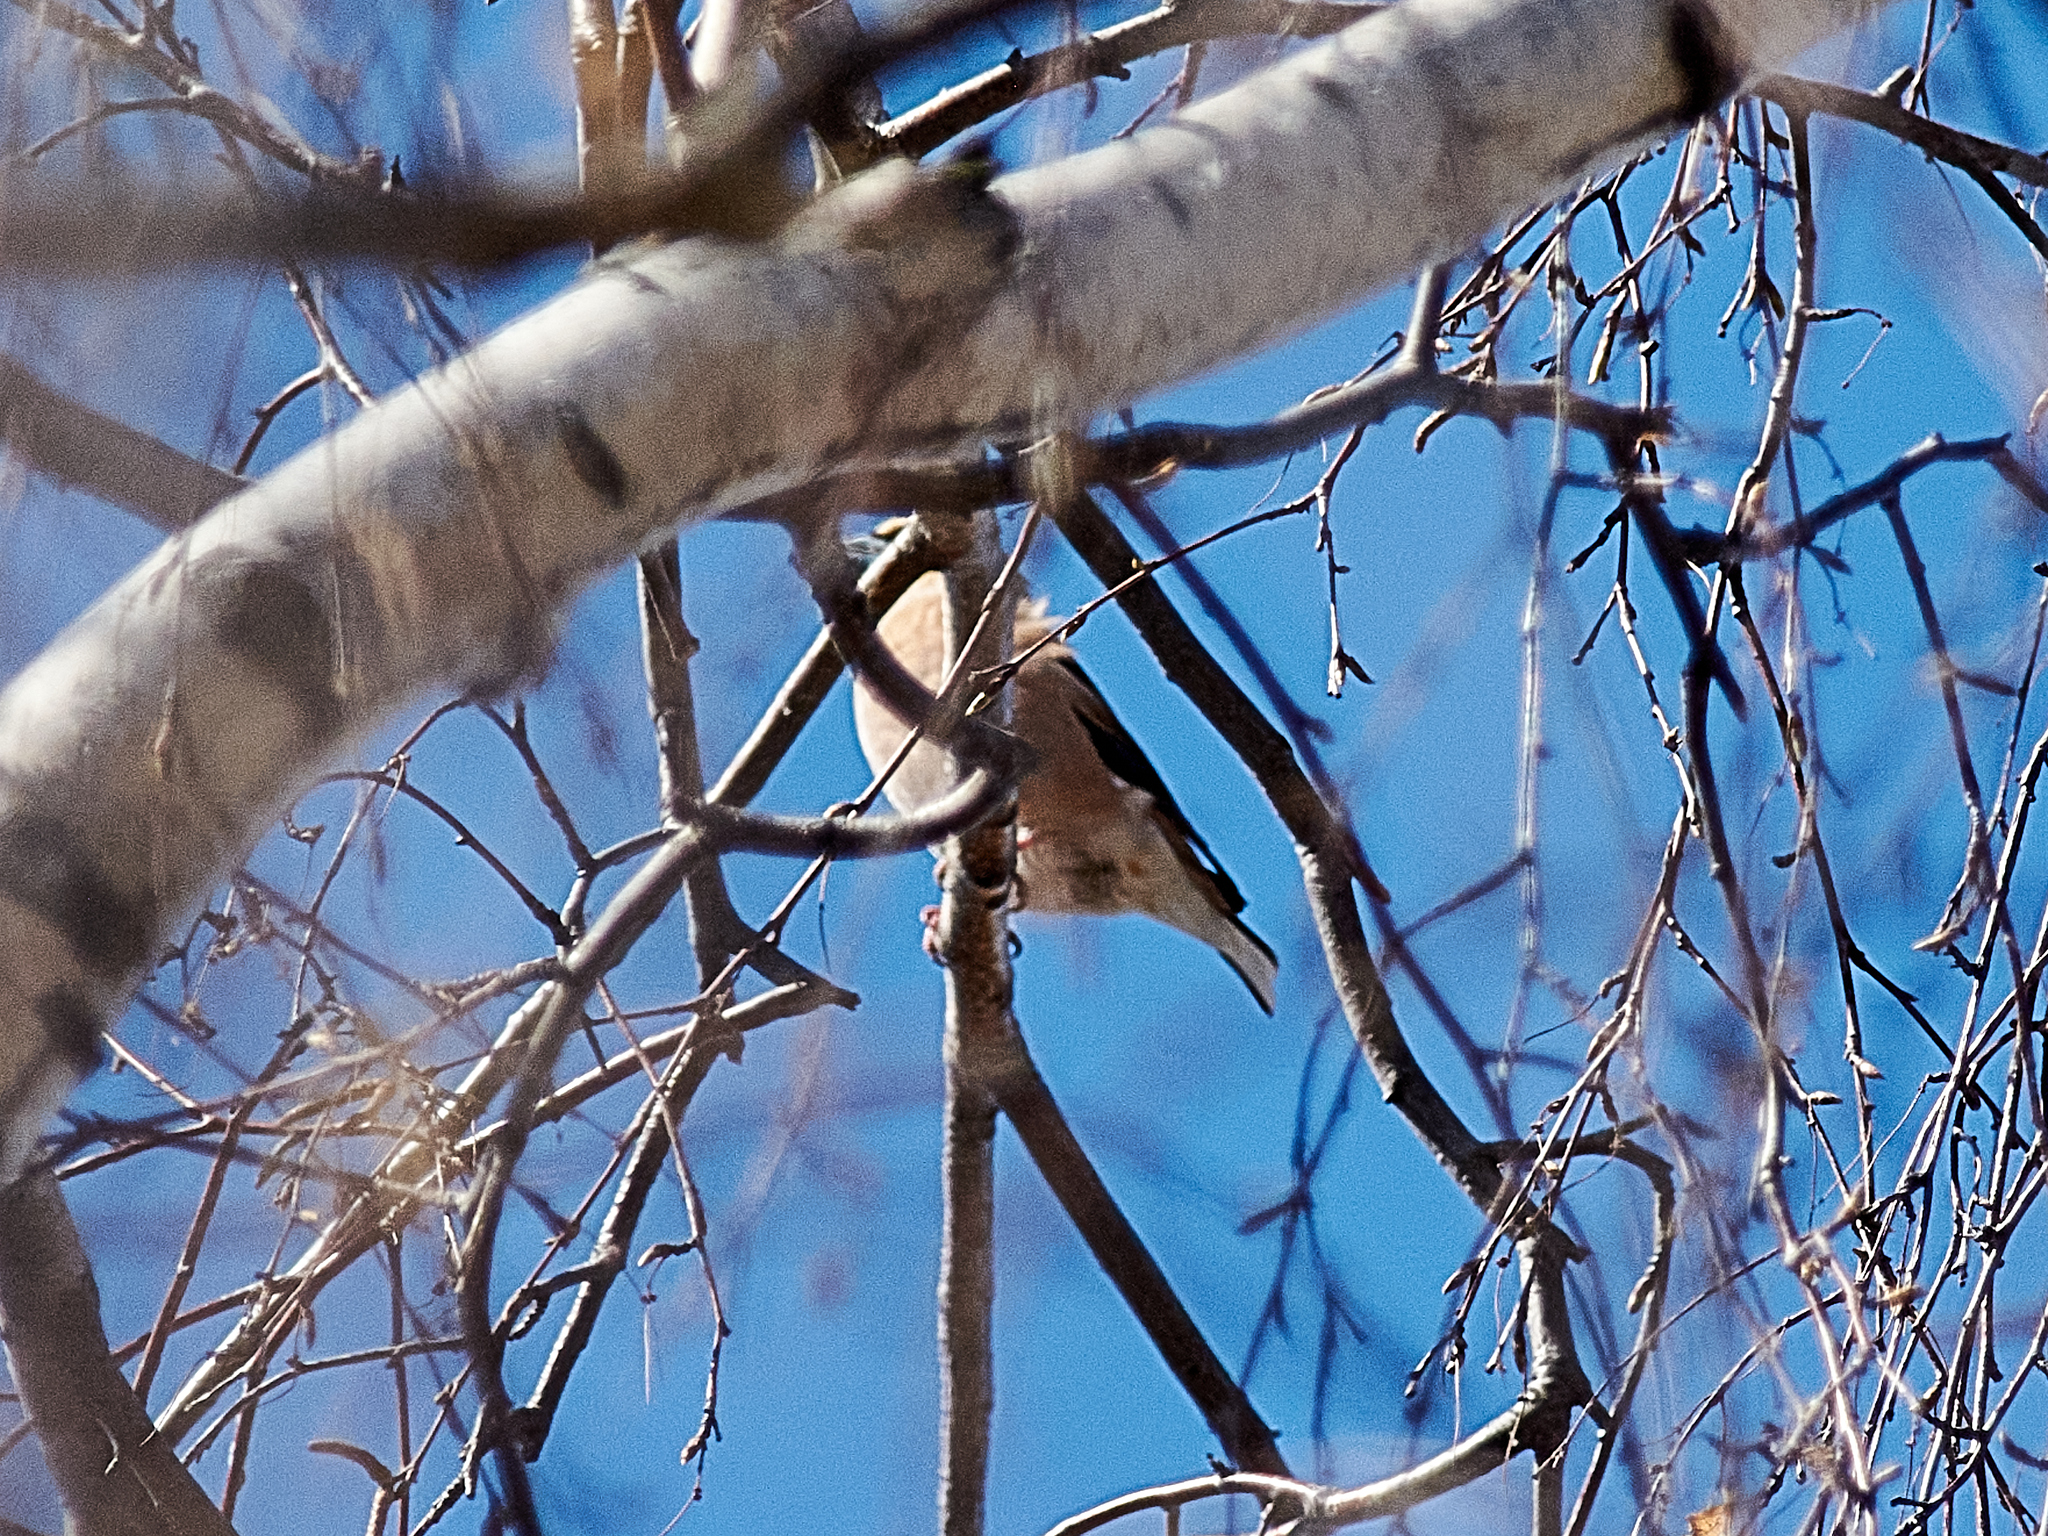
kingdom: Animalia
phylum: Chordata
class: Aves
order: Passeriformes
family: Fringillidae
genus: Coccothraustes
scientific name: Coccothraustes coccothraustes
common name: Hawfinch
